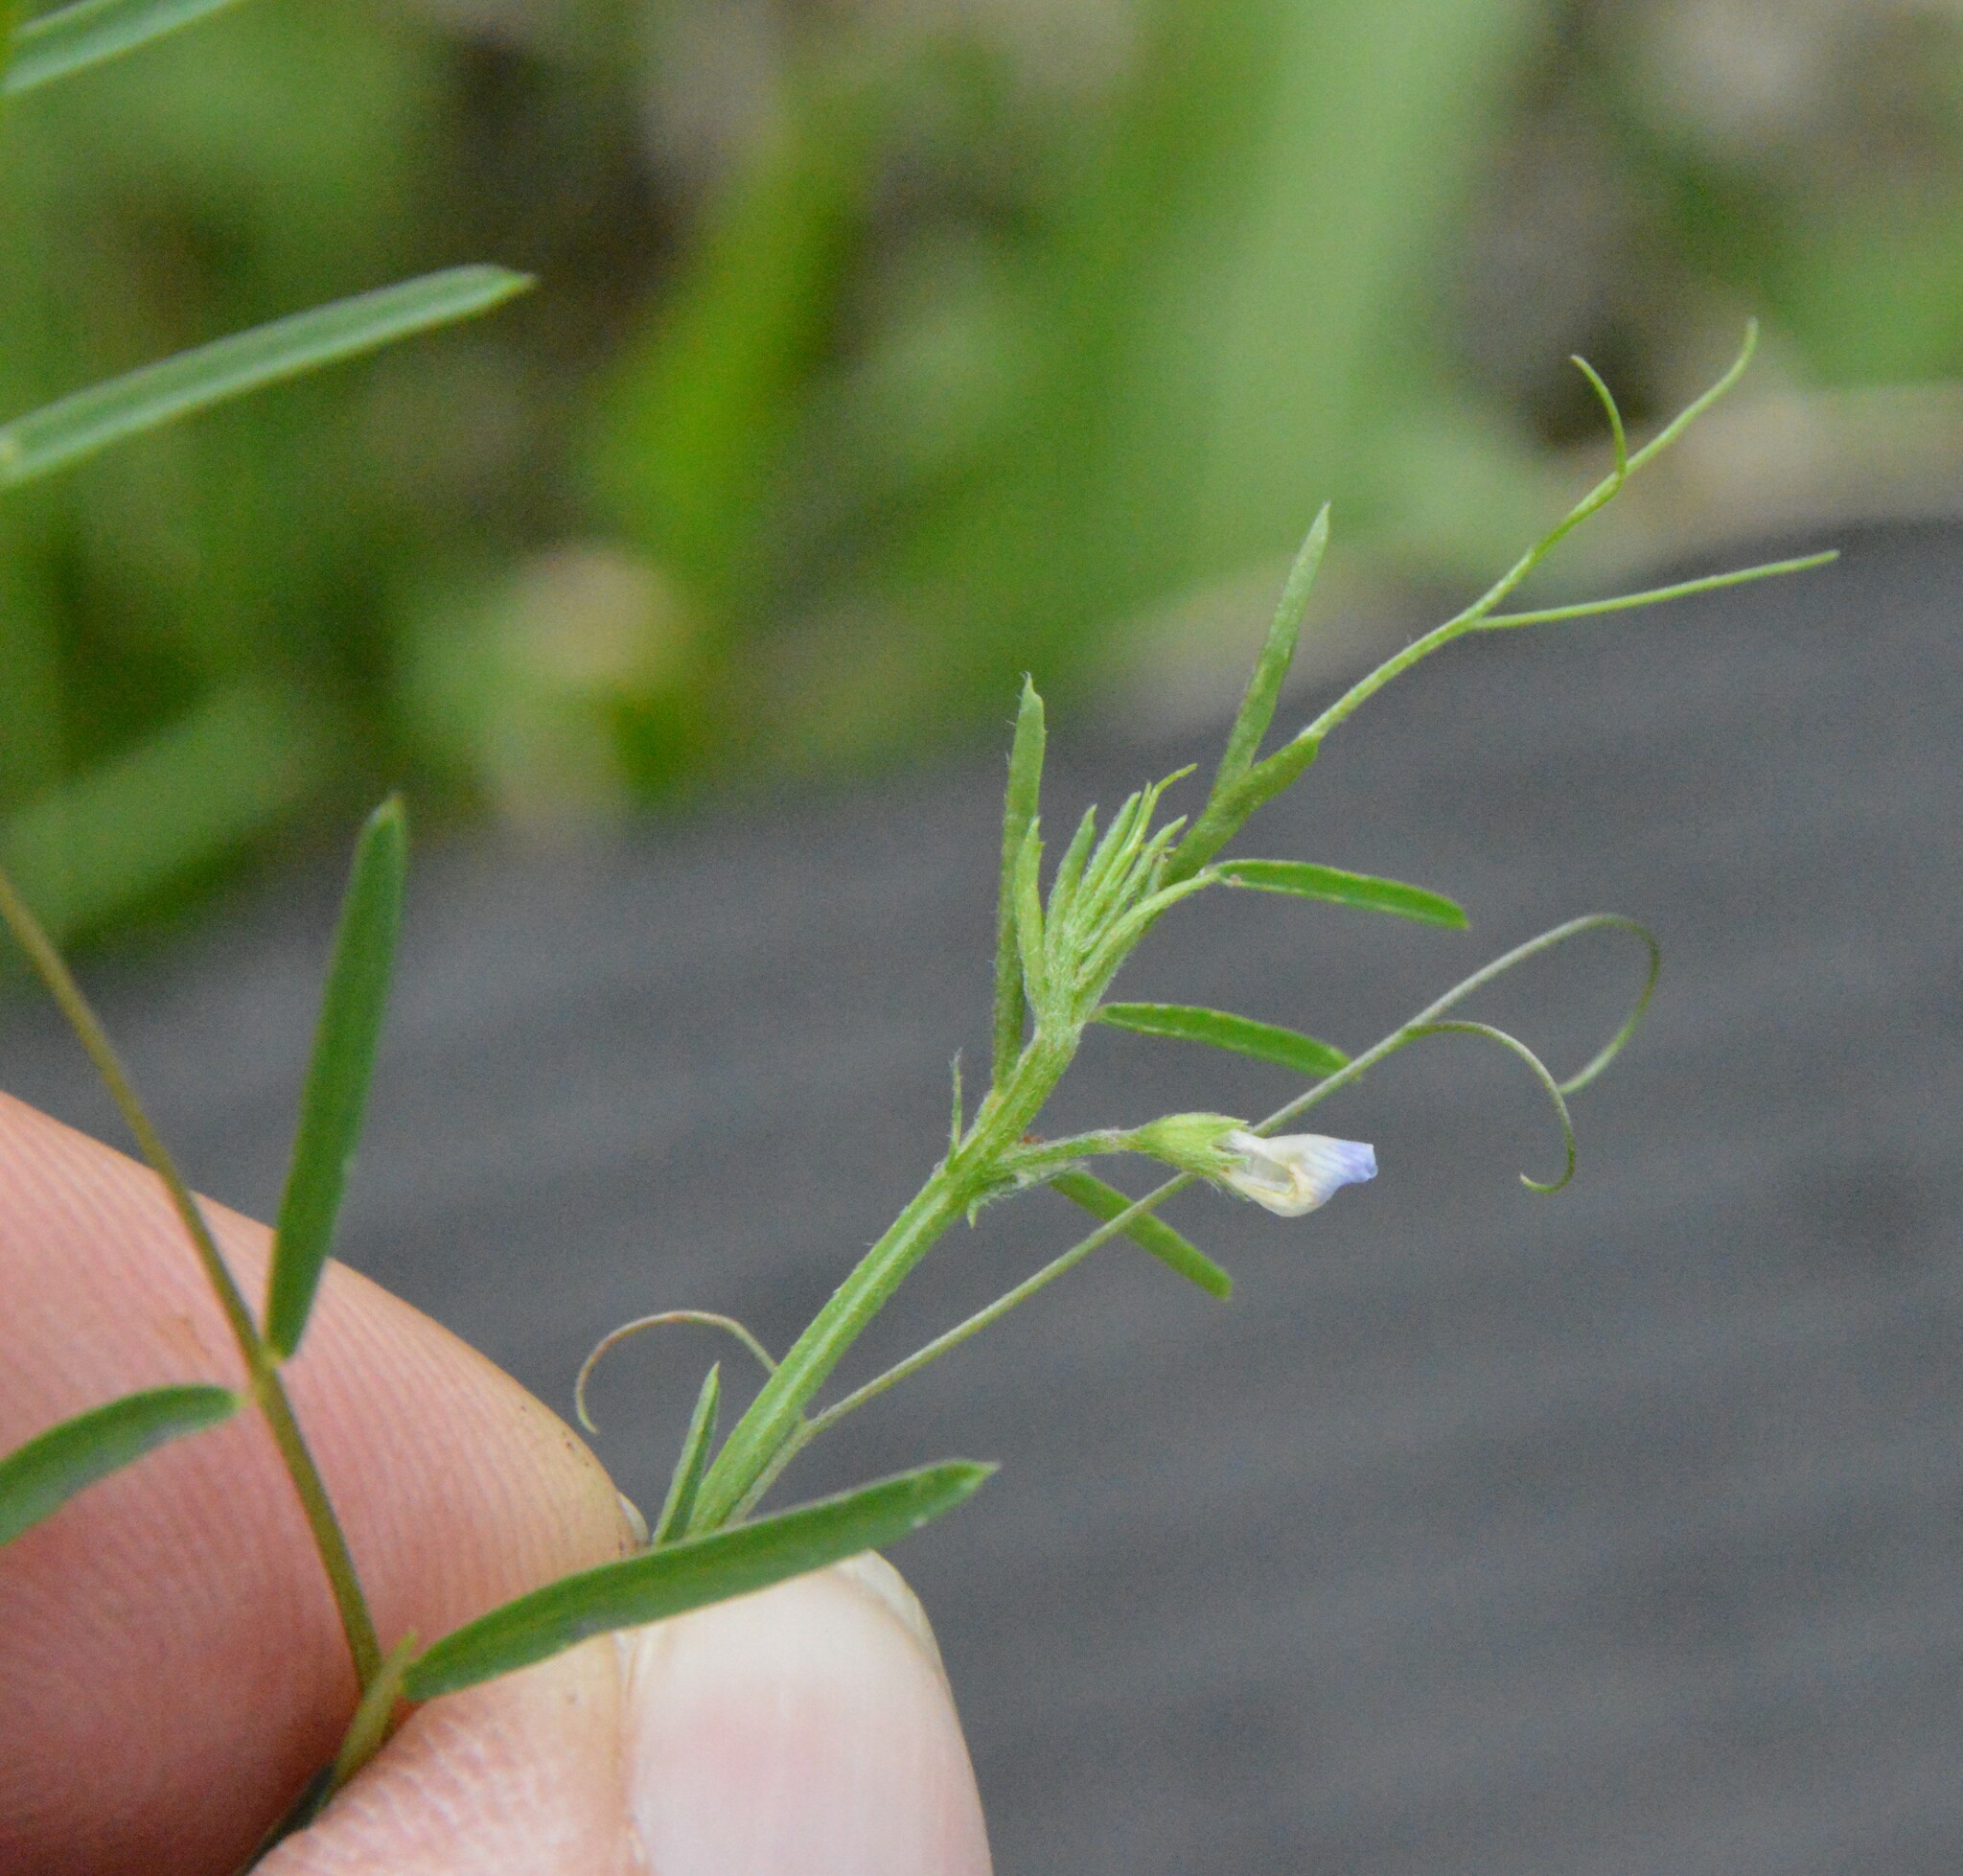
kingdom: Plantae
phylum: Tracheophyta
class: Magnoliopsida
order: Fabales
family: Fabaceae
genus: Vicia
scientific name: Vicia minutiflora
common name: Pygmy-flower vetch
